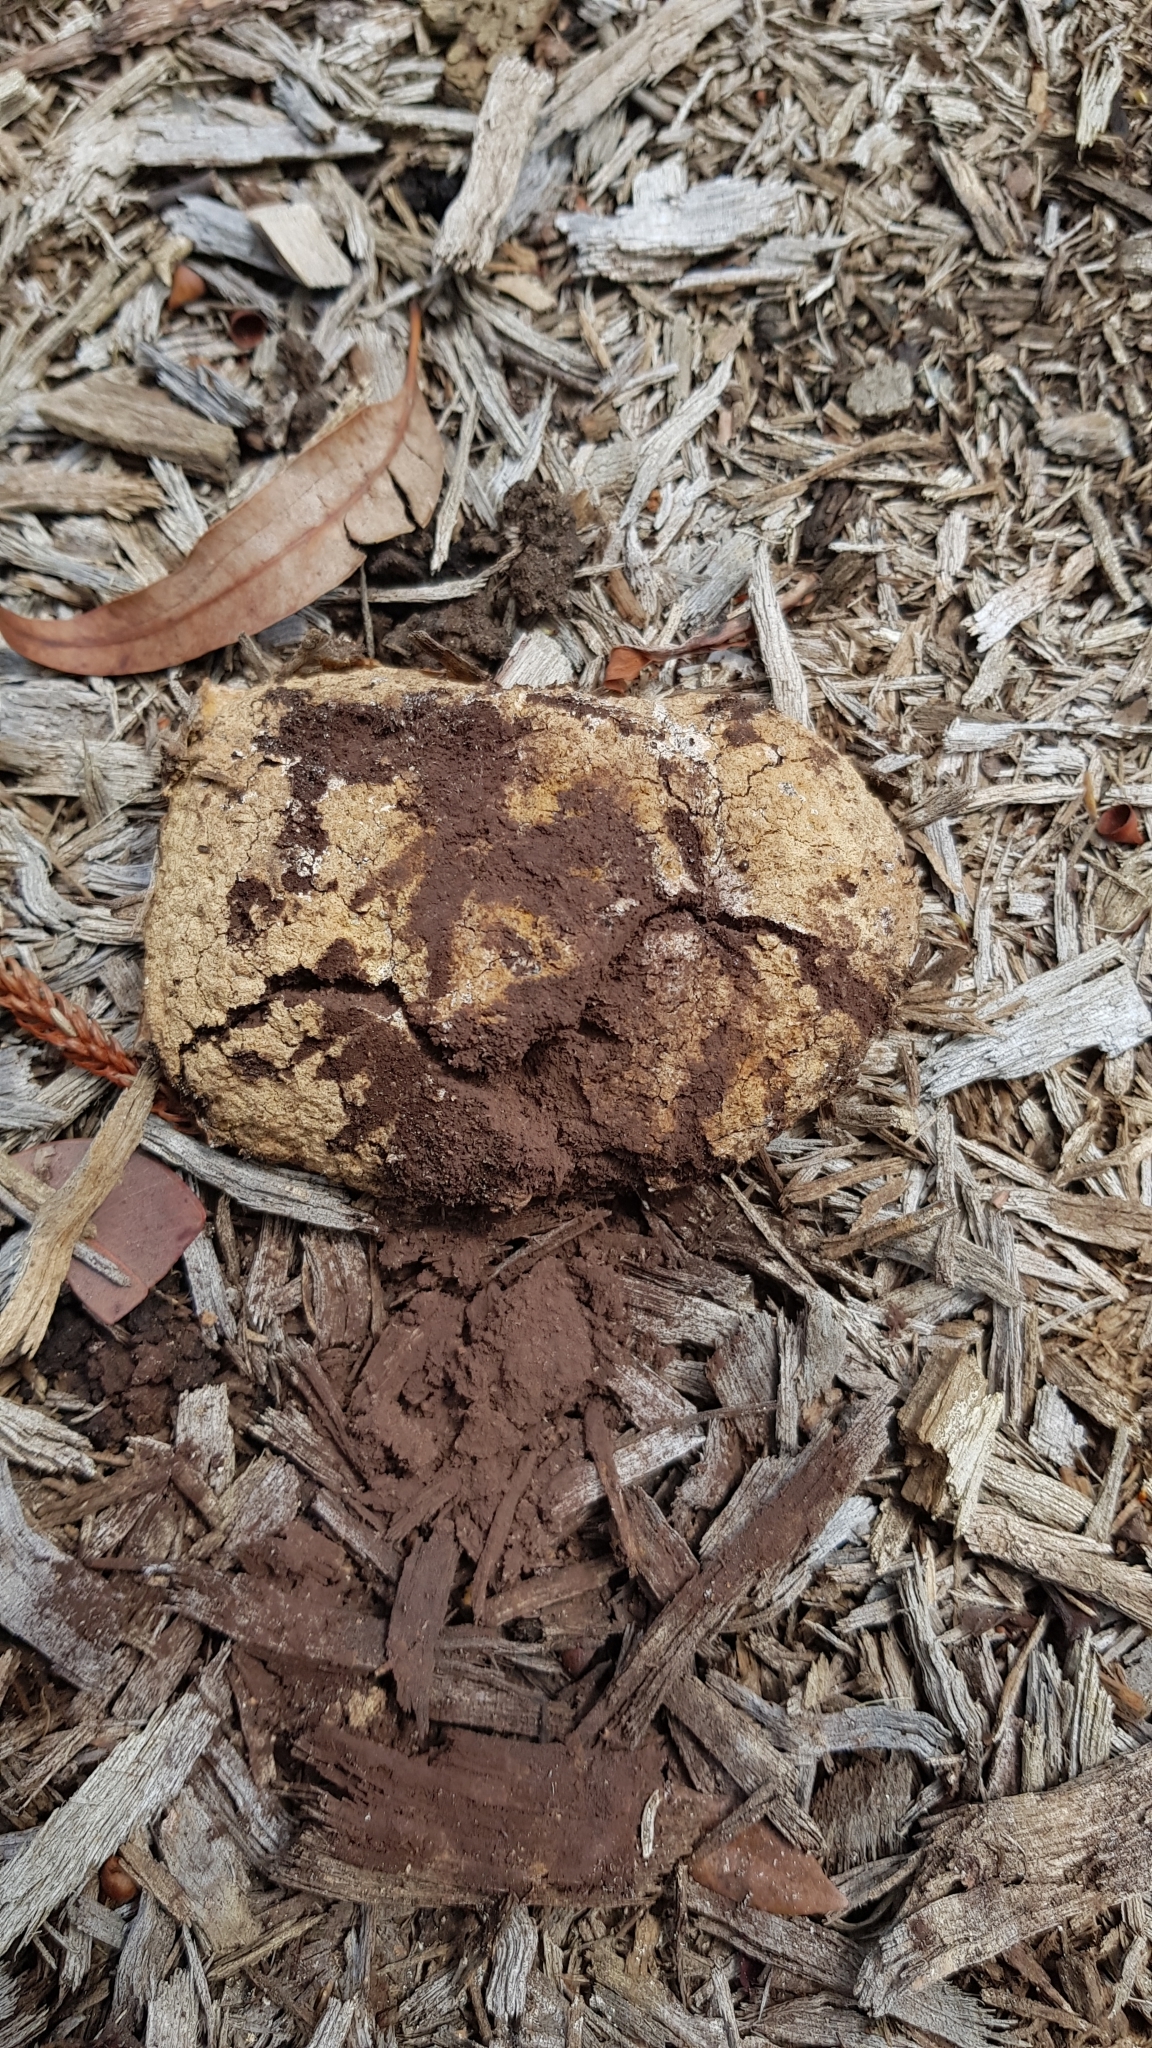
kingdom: Protozoa
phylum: Mycetozoa
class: Myxomycetes
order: Physarales
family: Physaraceae
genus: Fuligo
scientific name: Fuligo septica
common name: Dog vomit slime mold
